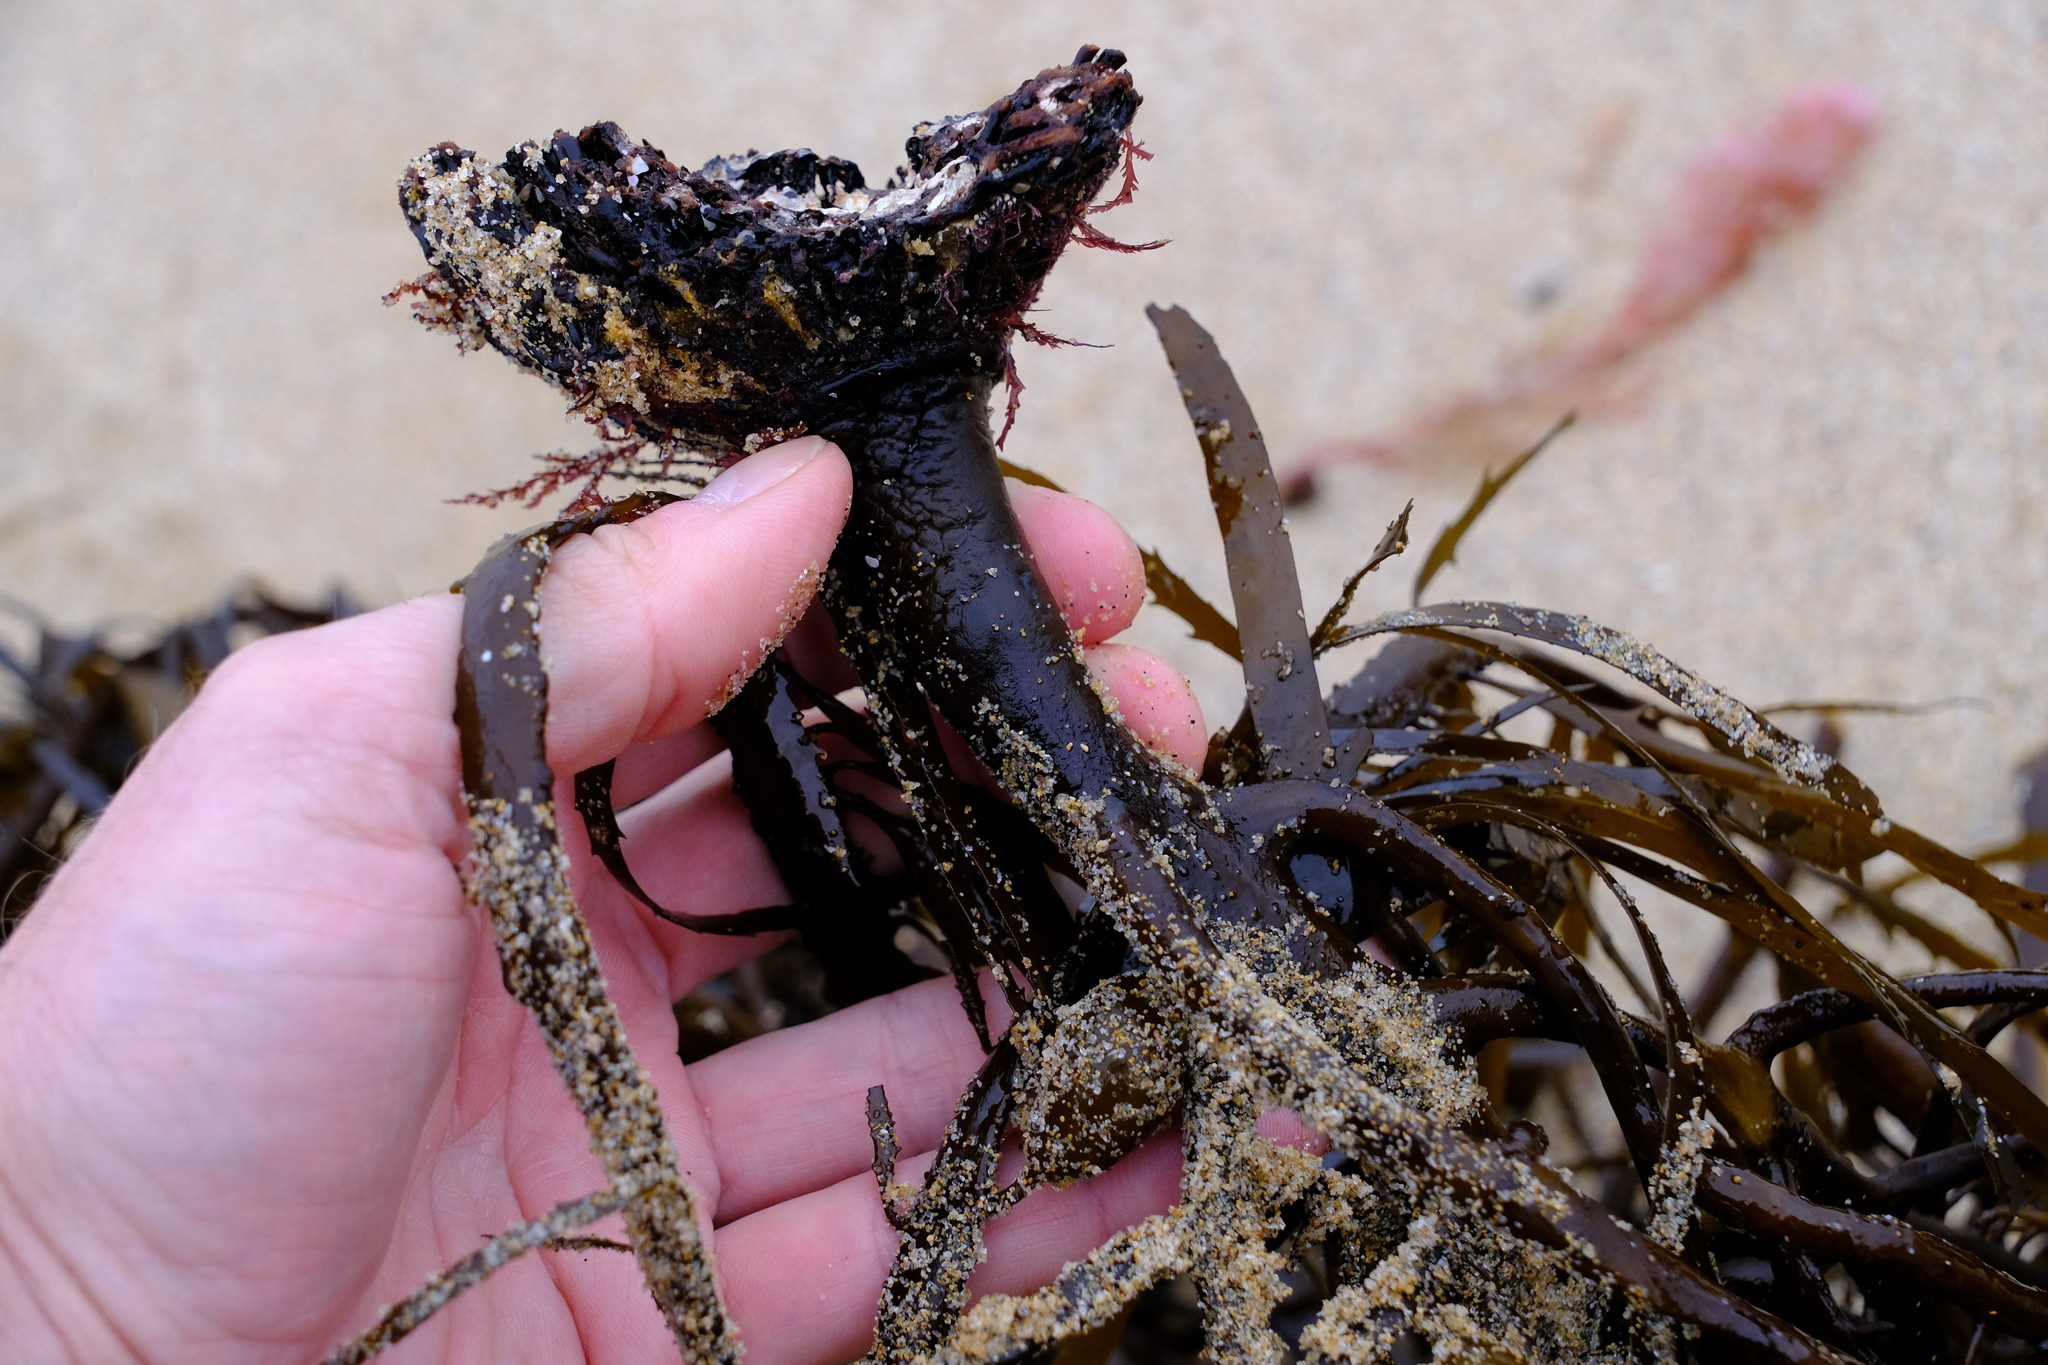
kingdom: Chromista
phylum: Ochrophyta
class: Phaeophyceae
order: Fucales
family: Seirococcaceae
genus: Phyllospora
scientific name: Phyllospora
